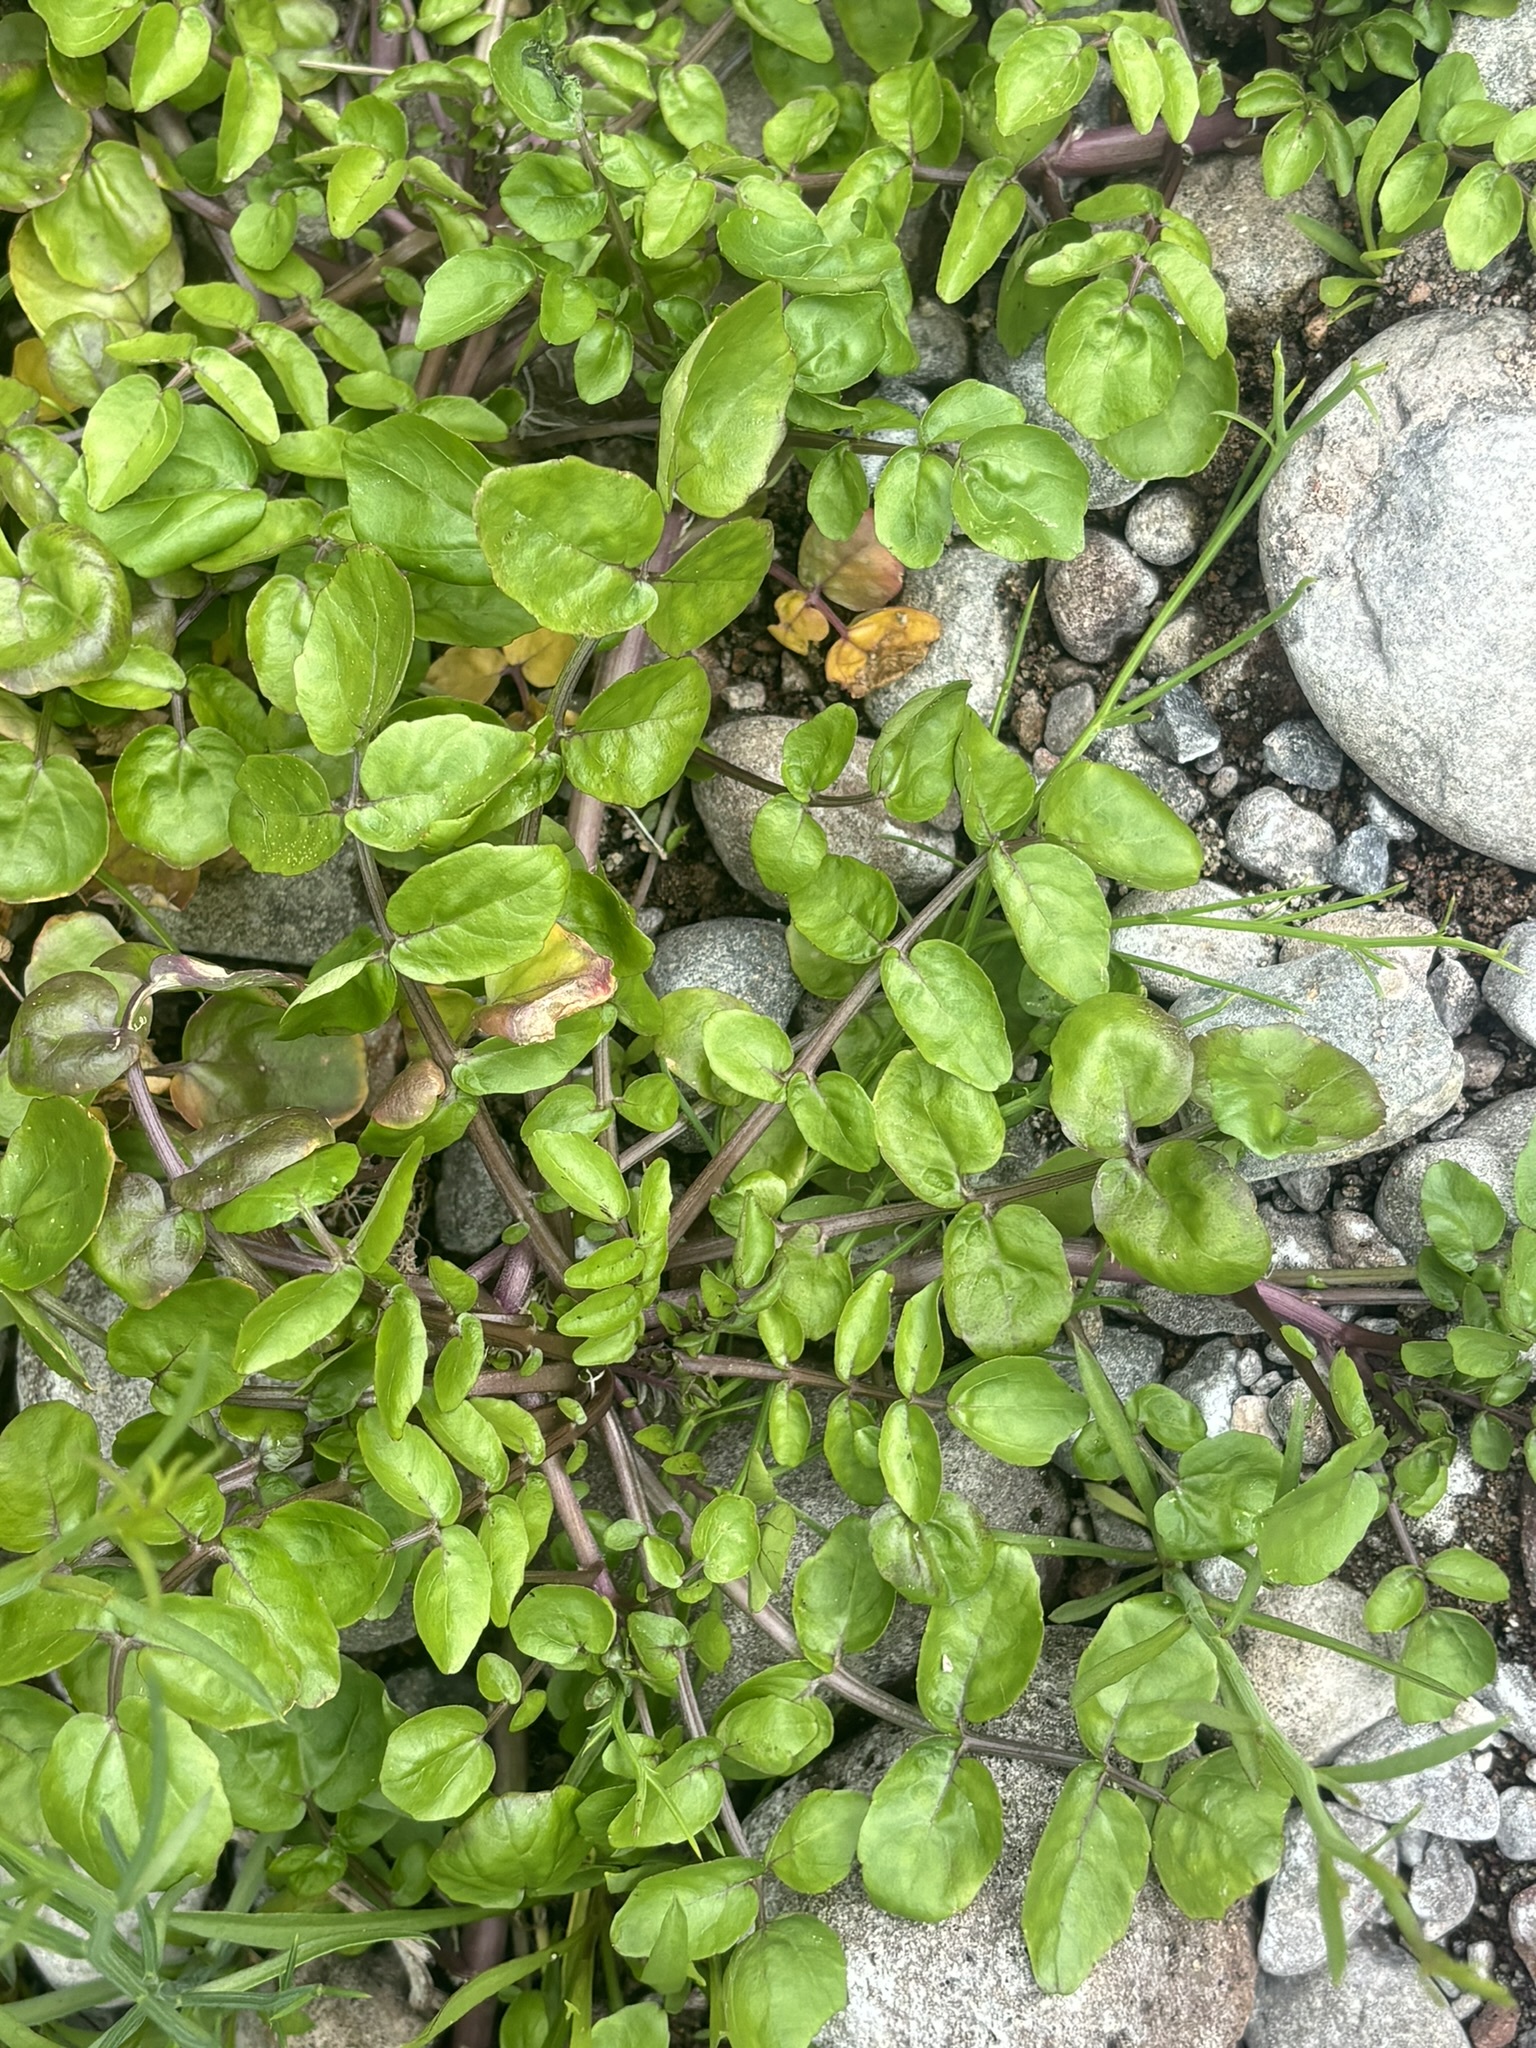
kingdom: Plantae
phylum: Tracheophyta
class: Magnoliopsida
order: Brassicales
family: Brassicaceae
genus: Nasturtium
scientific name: Nasturtium officinale
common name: Watercress
